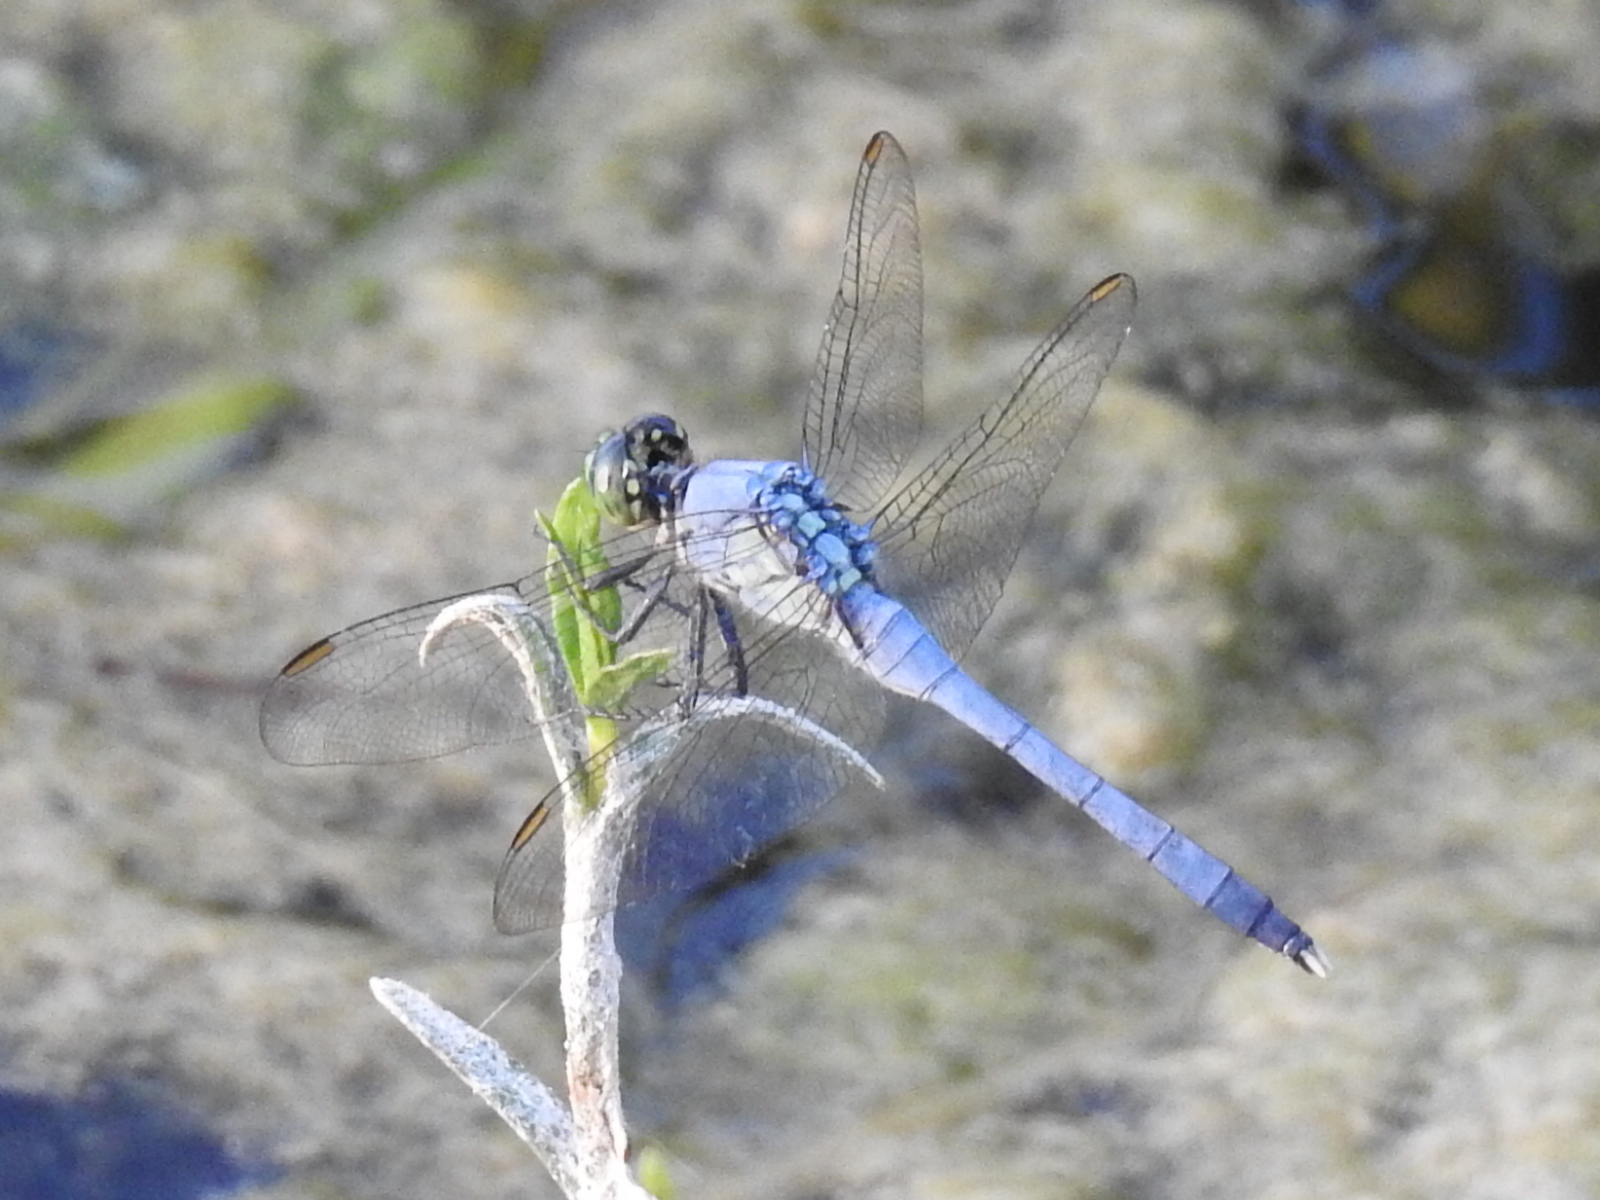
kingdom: Animalia
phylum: Arthropoda
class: Insecta
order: Odonata
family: Libellulidae
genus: Erythemis
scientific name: Erythemis simplicicollis
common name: Eastern pondhawk
